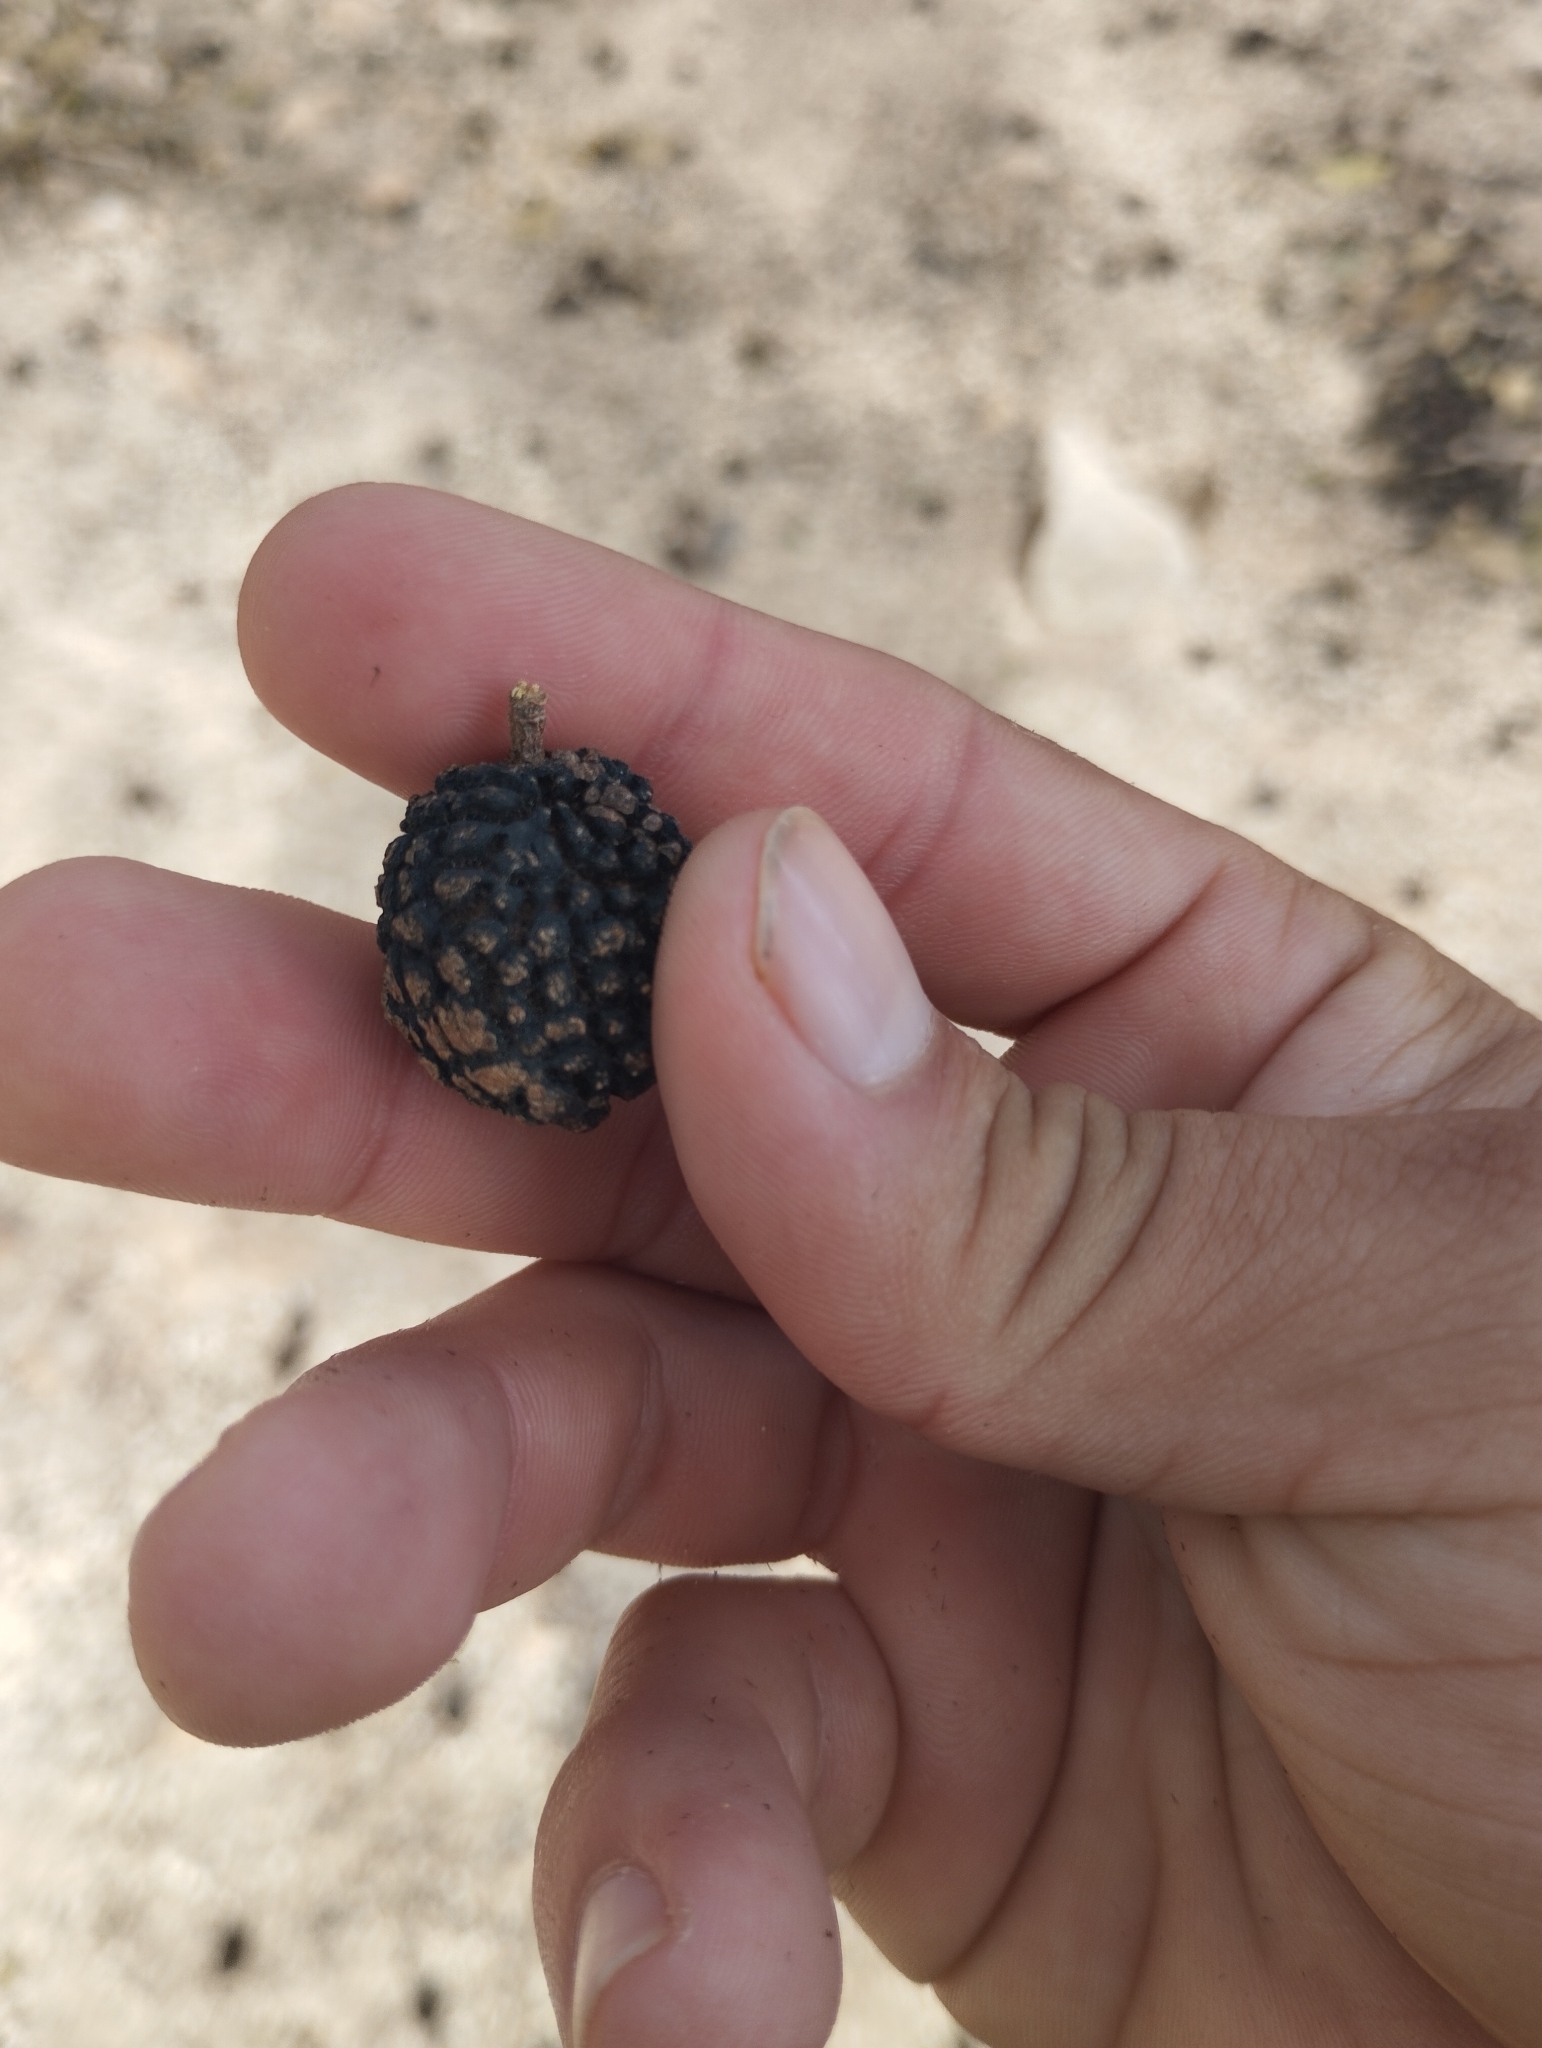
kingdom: Plantae
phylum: Tracheophyta
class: Magnoliopsida
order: Malvales
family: Malvaceae
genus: Guazuma
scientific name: Guazuma ulmifolia
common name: Bastard-cedar
